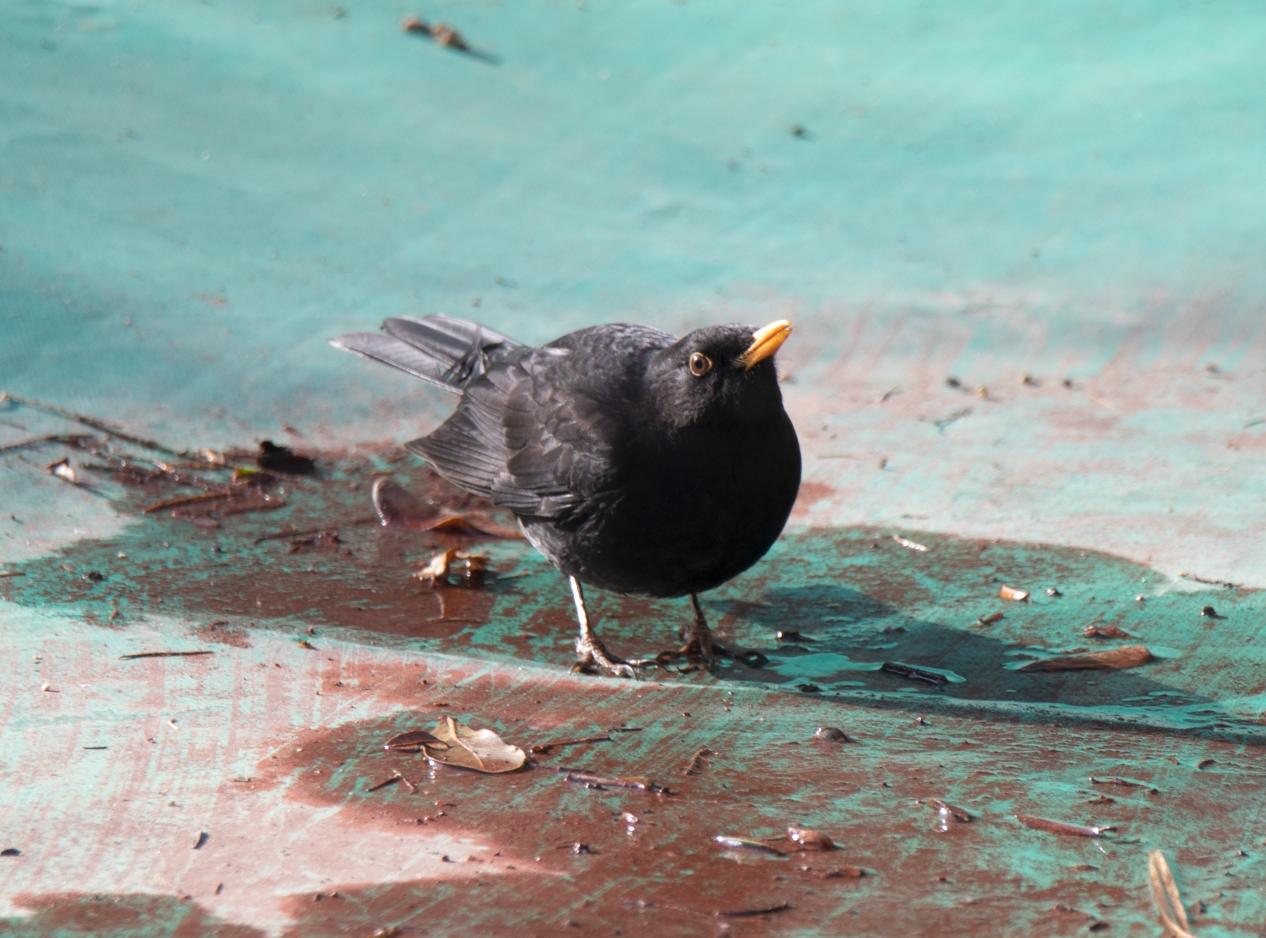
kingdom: Animalia
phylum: Chordata
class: Aves
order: Passeriformes
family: Turdidae
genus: Turdus
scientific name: Turdus merula
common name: Common blackbird
